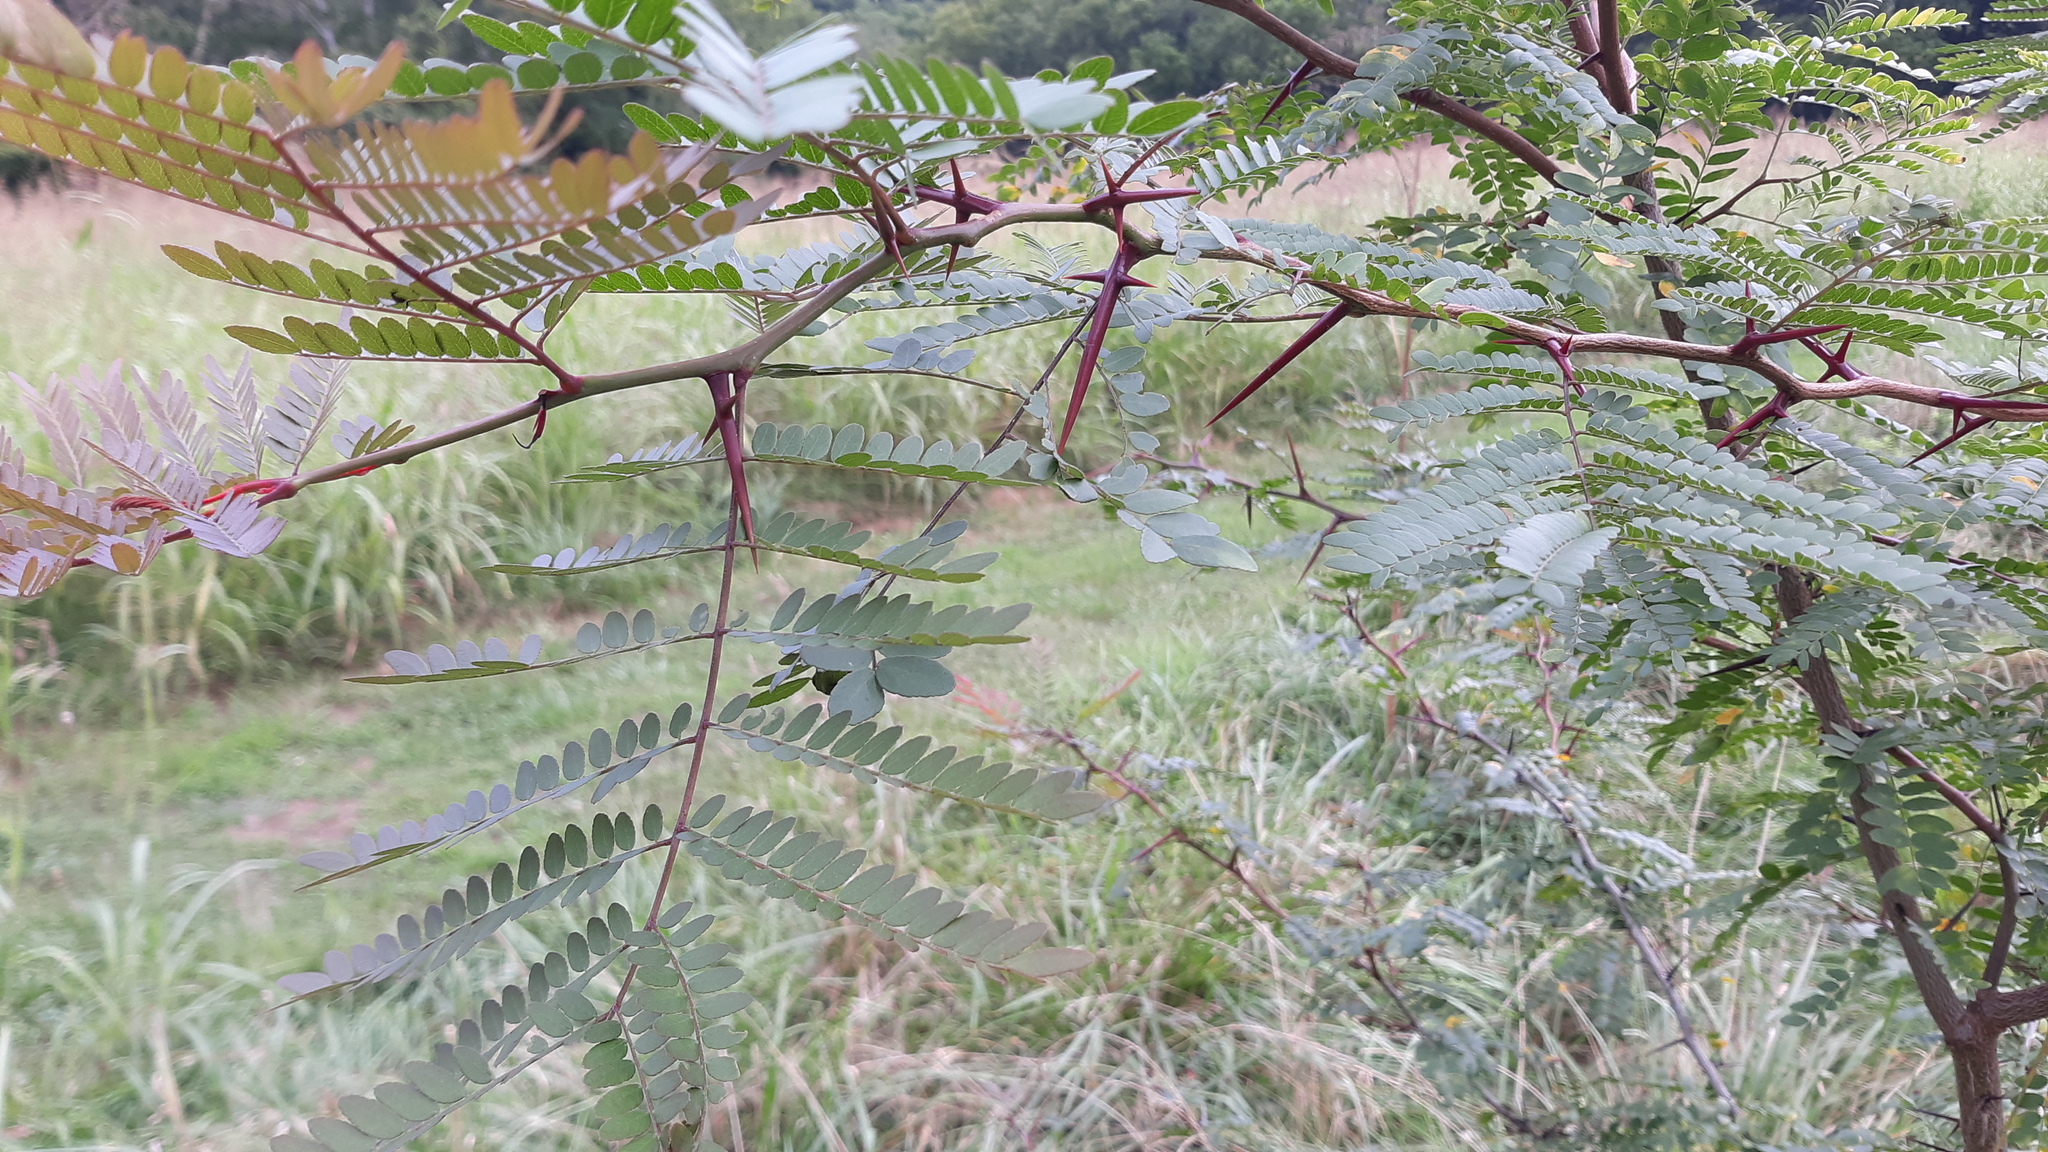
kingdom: Plantae
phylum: Tracheophyta
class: Magnoliopsida
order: Fabales
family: Fabaceae
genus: Gleditsia
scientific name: Gleditsia triacanthos
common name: Common honeylocust
